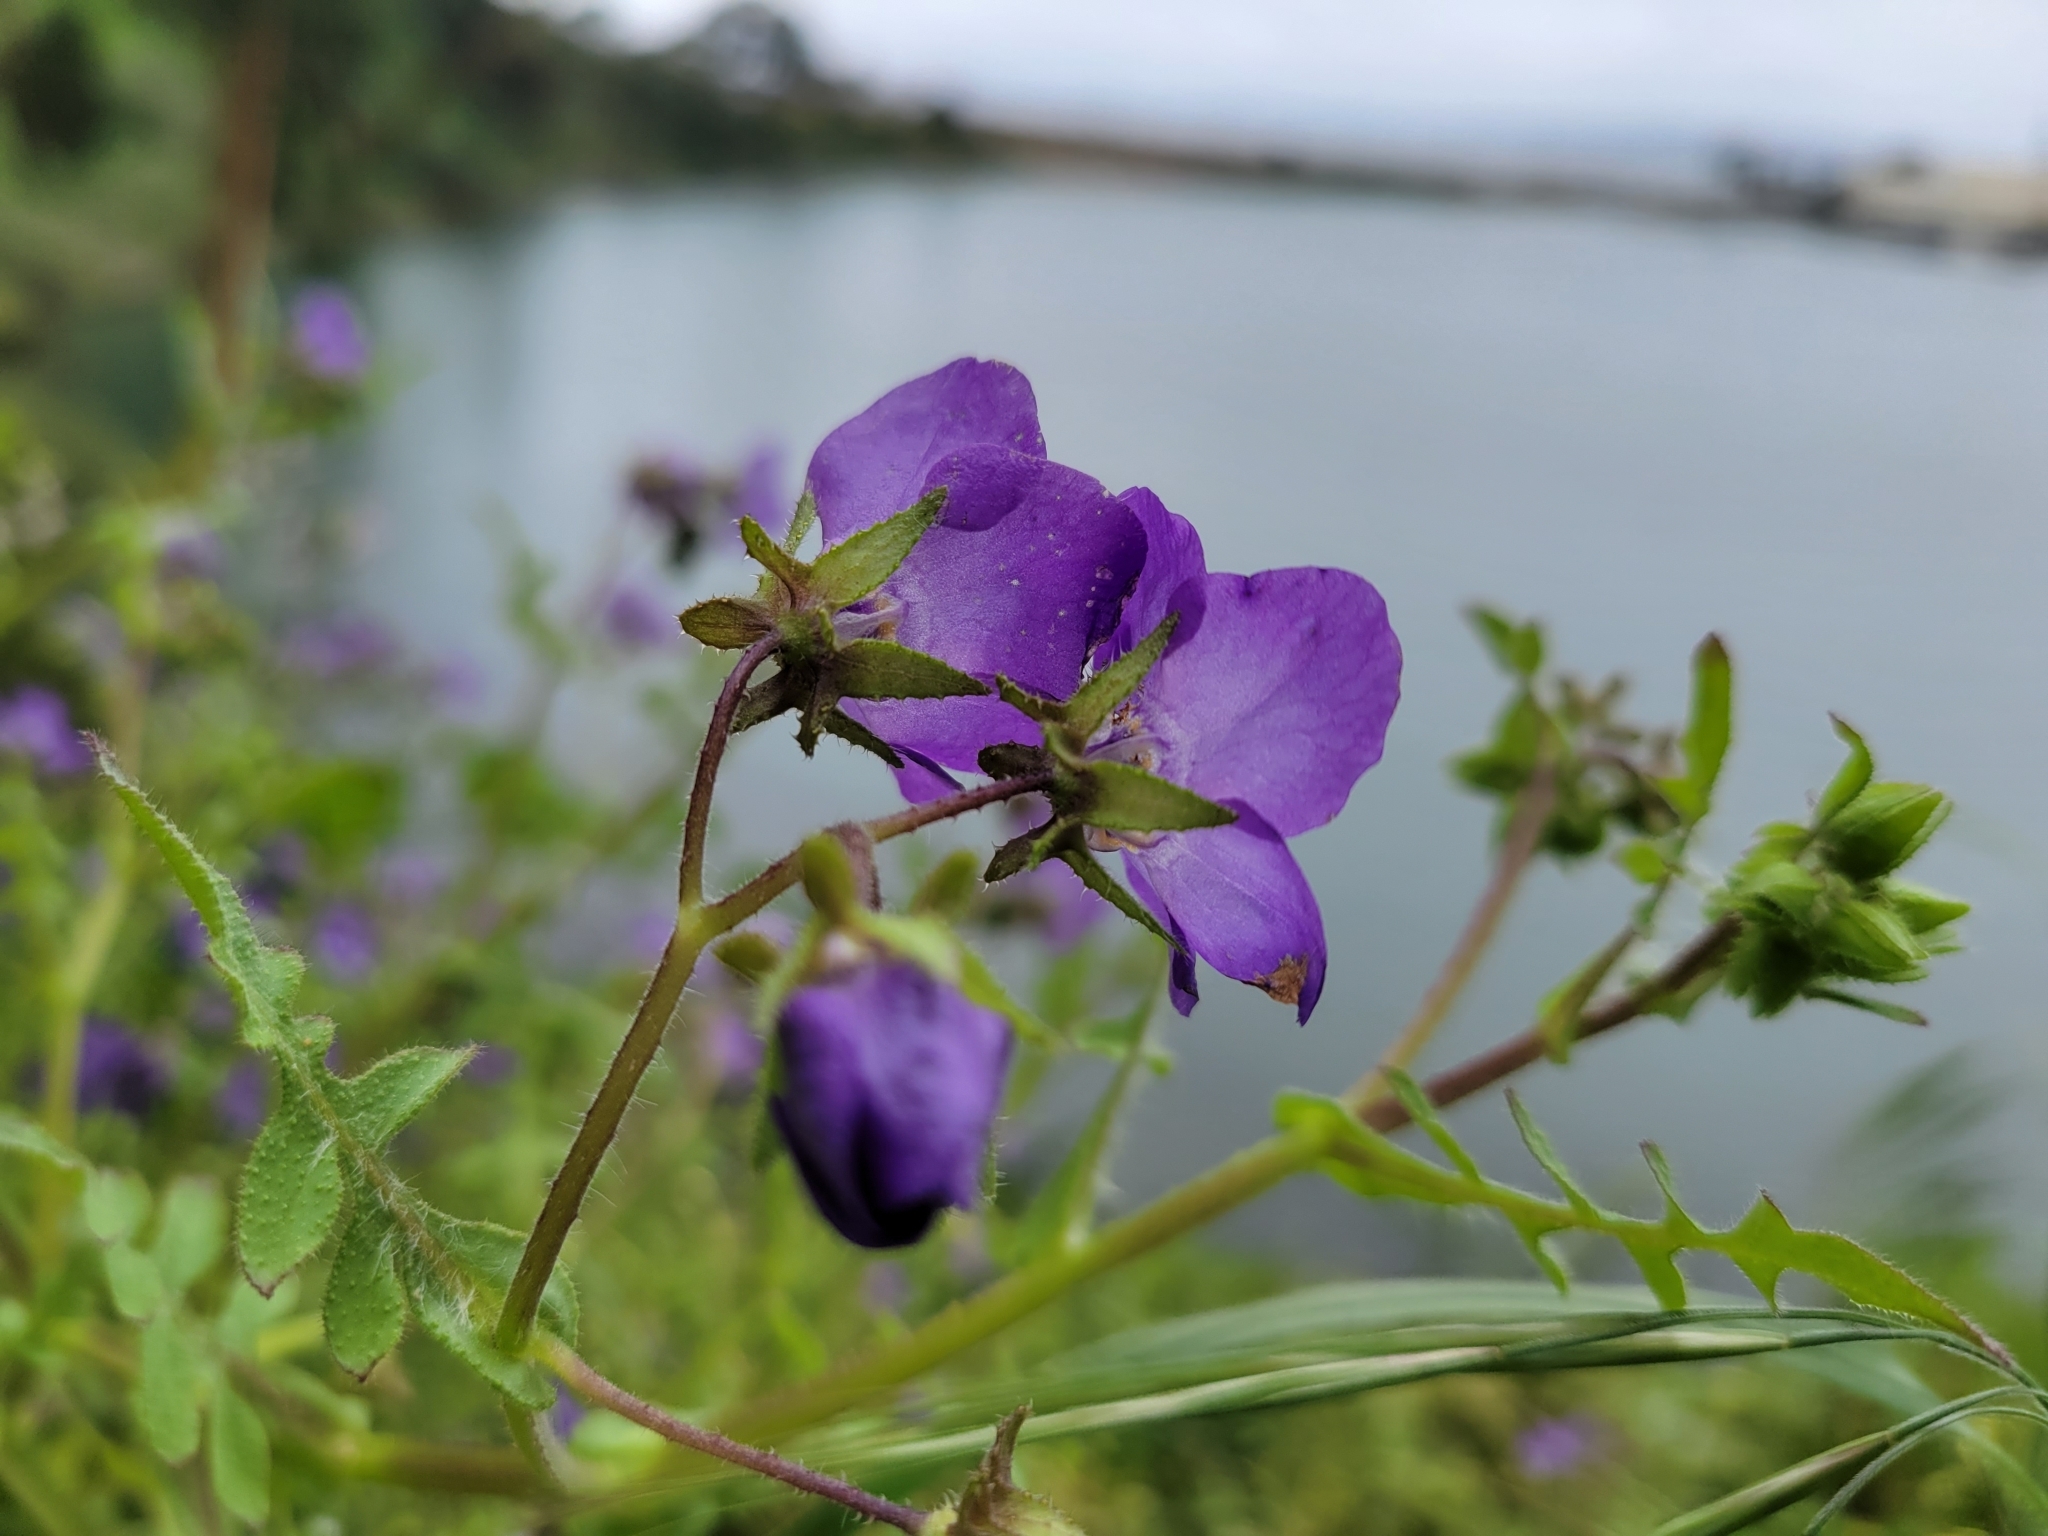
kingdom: Plantae
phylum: Tracheophyta
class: Magnoliopsida
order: Boraginales
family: Hydrophyllaceae
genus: Pholistoma
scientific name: Pholistoma auritum
